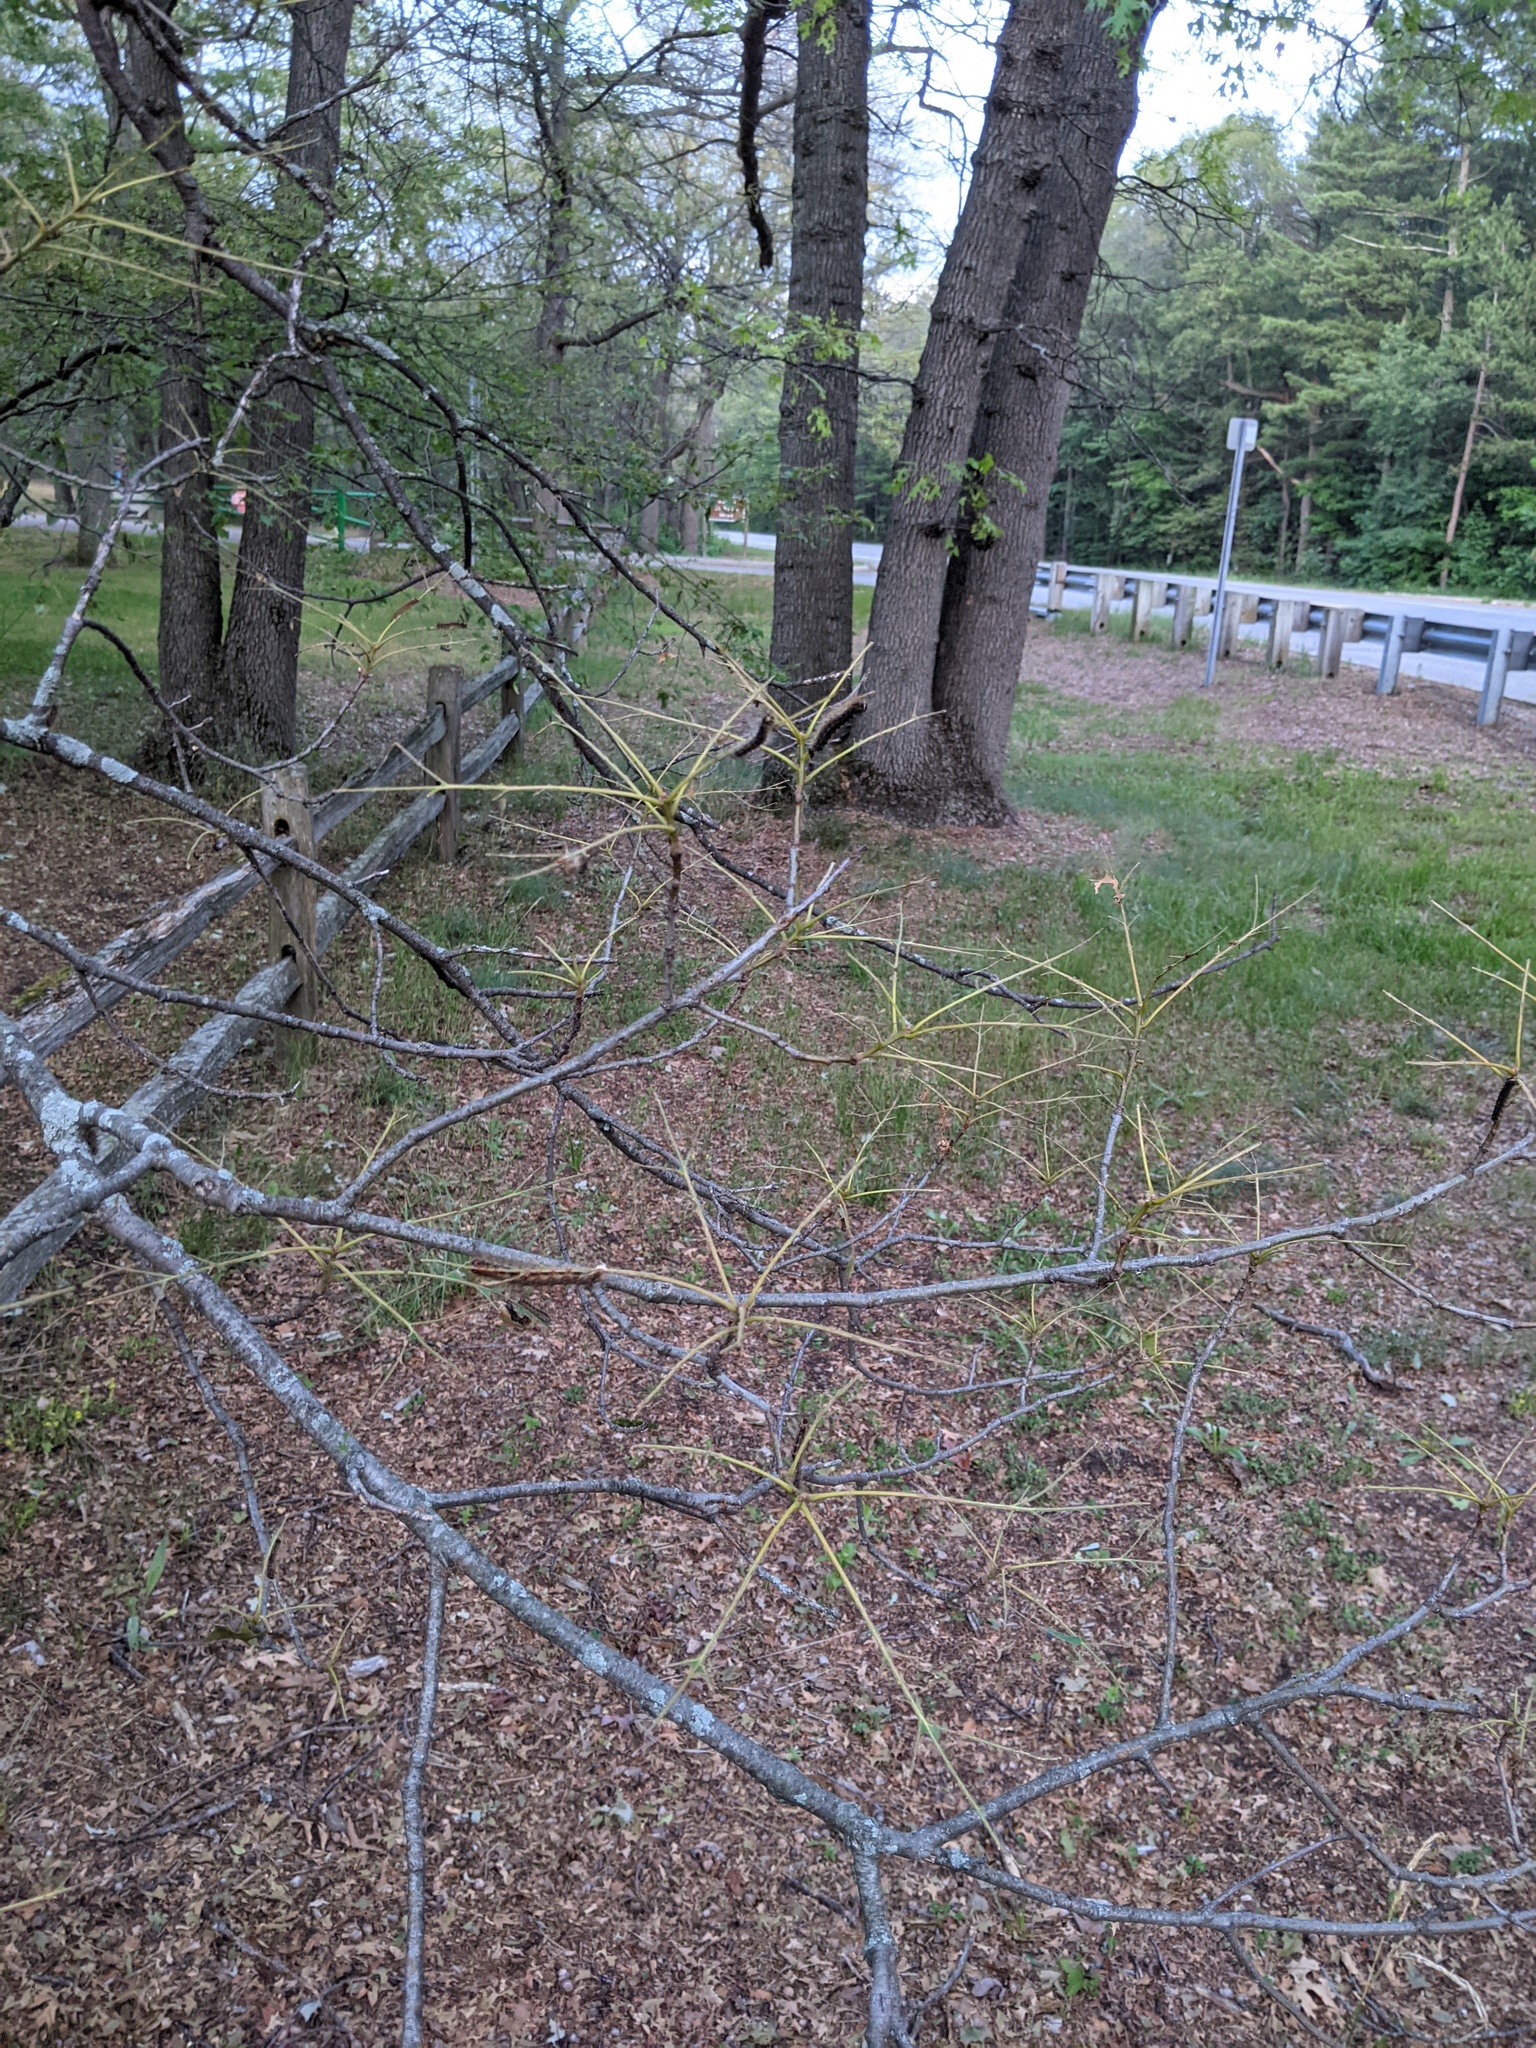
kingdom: Animalia
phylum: Arthropoda
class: Insecta
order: Lepidoptera
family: Erebidae
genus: Lymantria
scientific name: Lymantria dispar
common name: Gypsy moth
